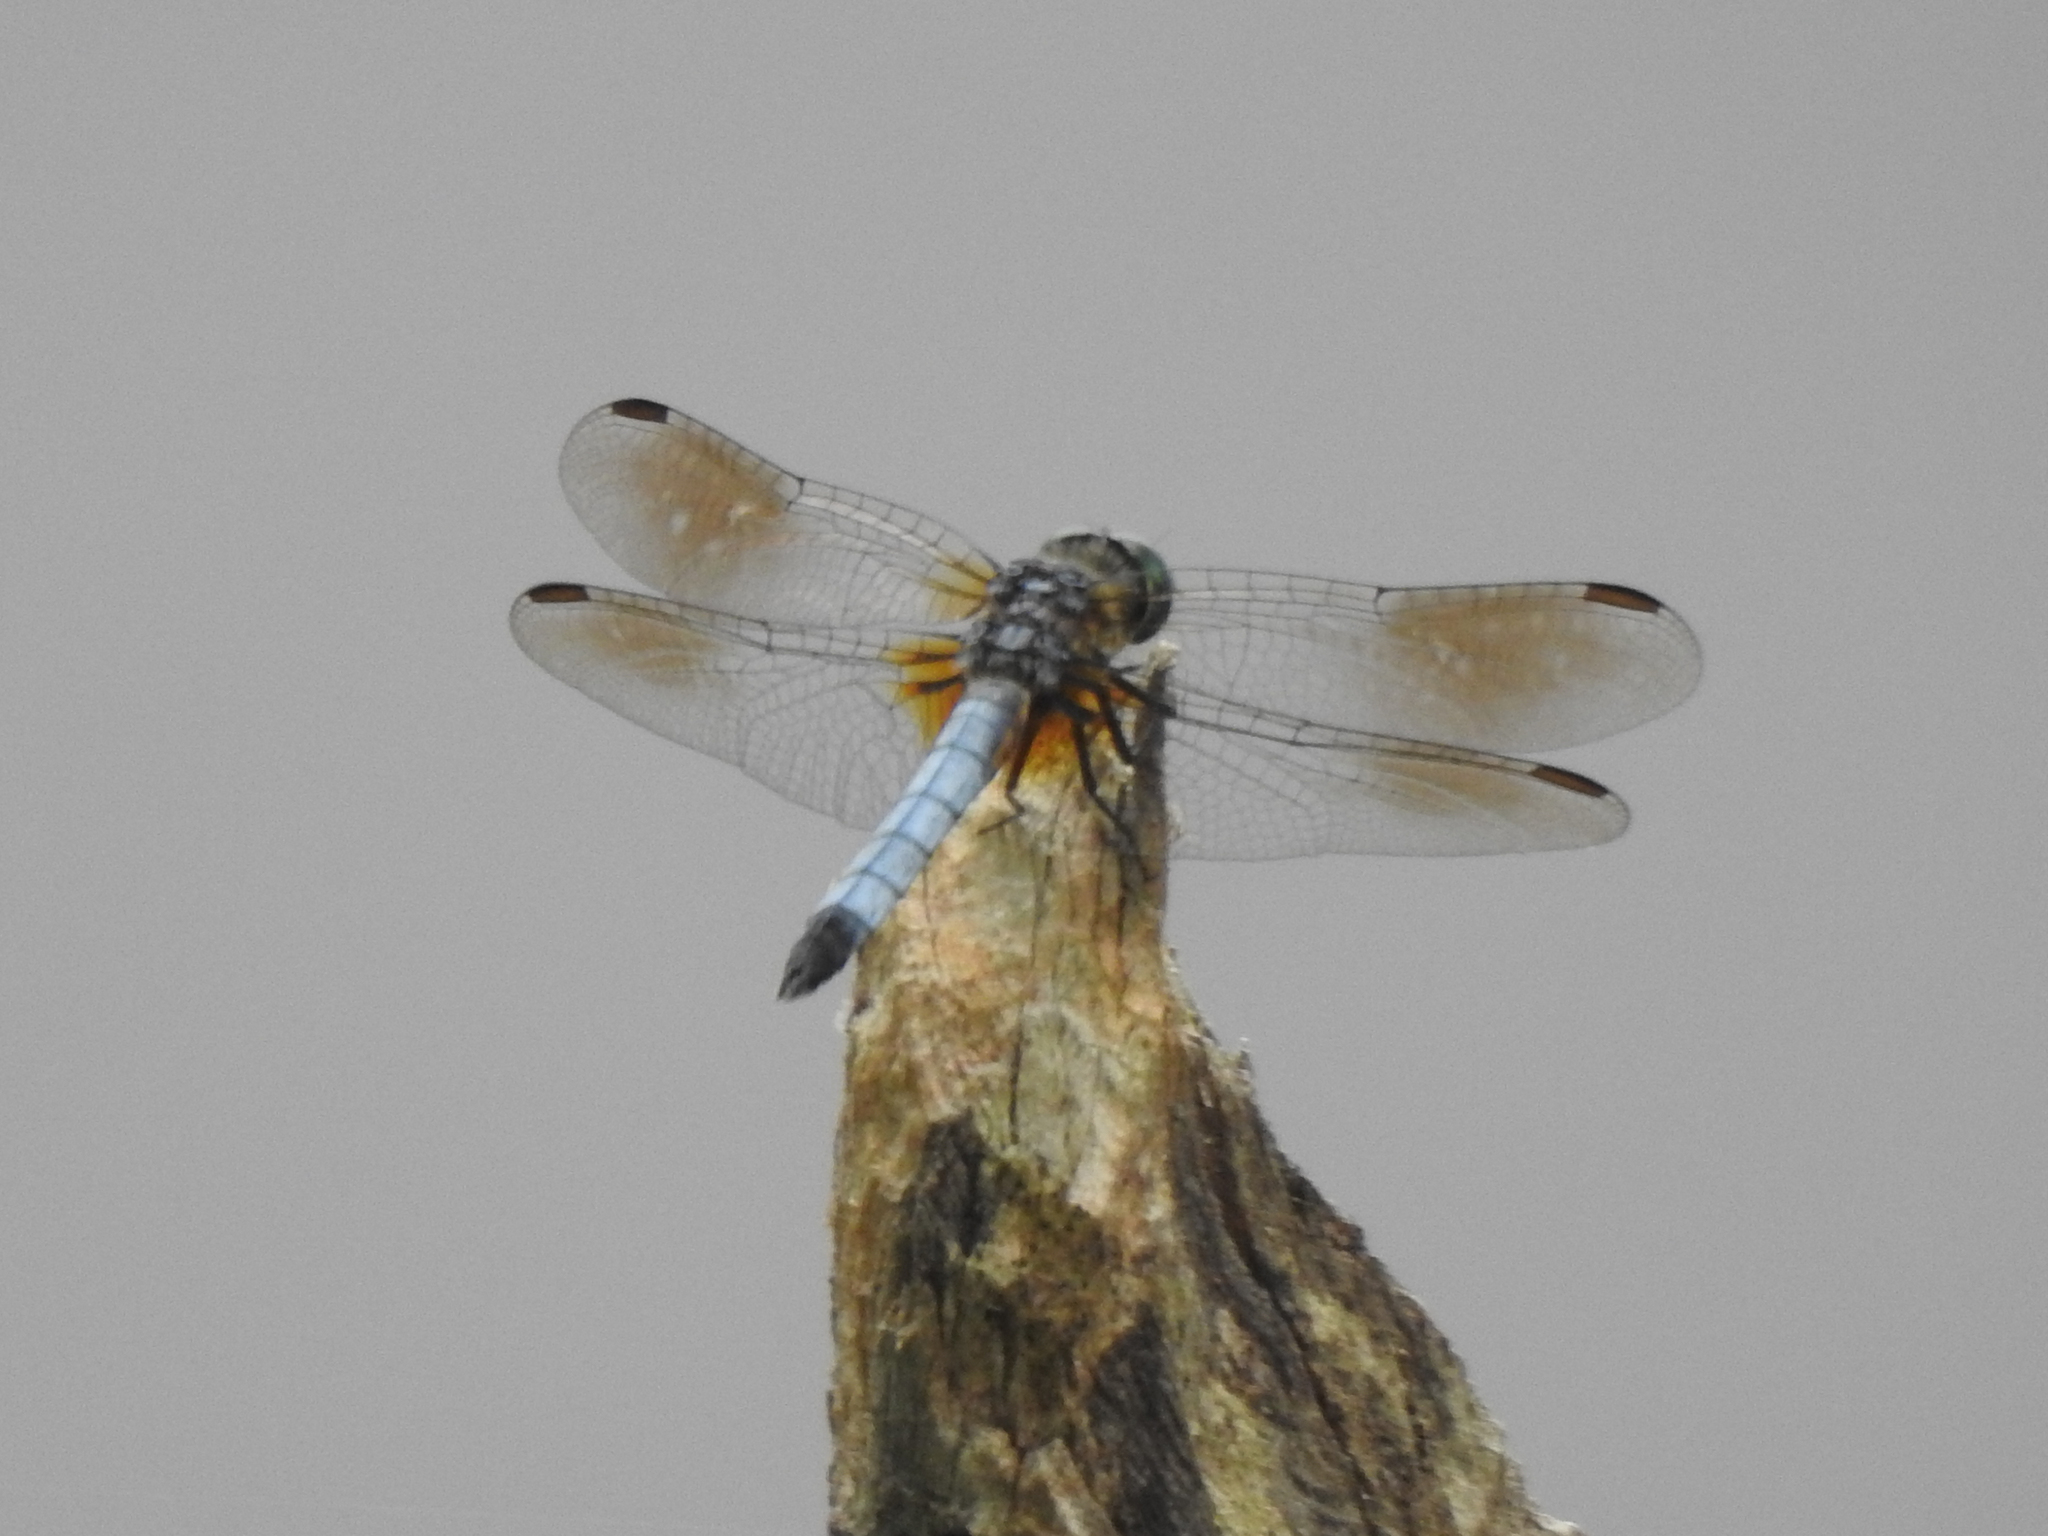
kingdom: Animalia
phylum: Arthropoda
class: Insecta
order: Odonata
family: Libellulidae
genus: Pachydiplax
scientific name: Pachydiplax longipennis
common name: Blue dasher
